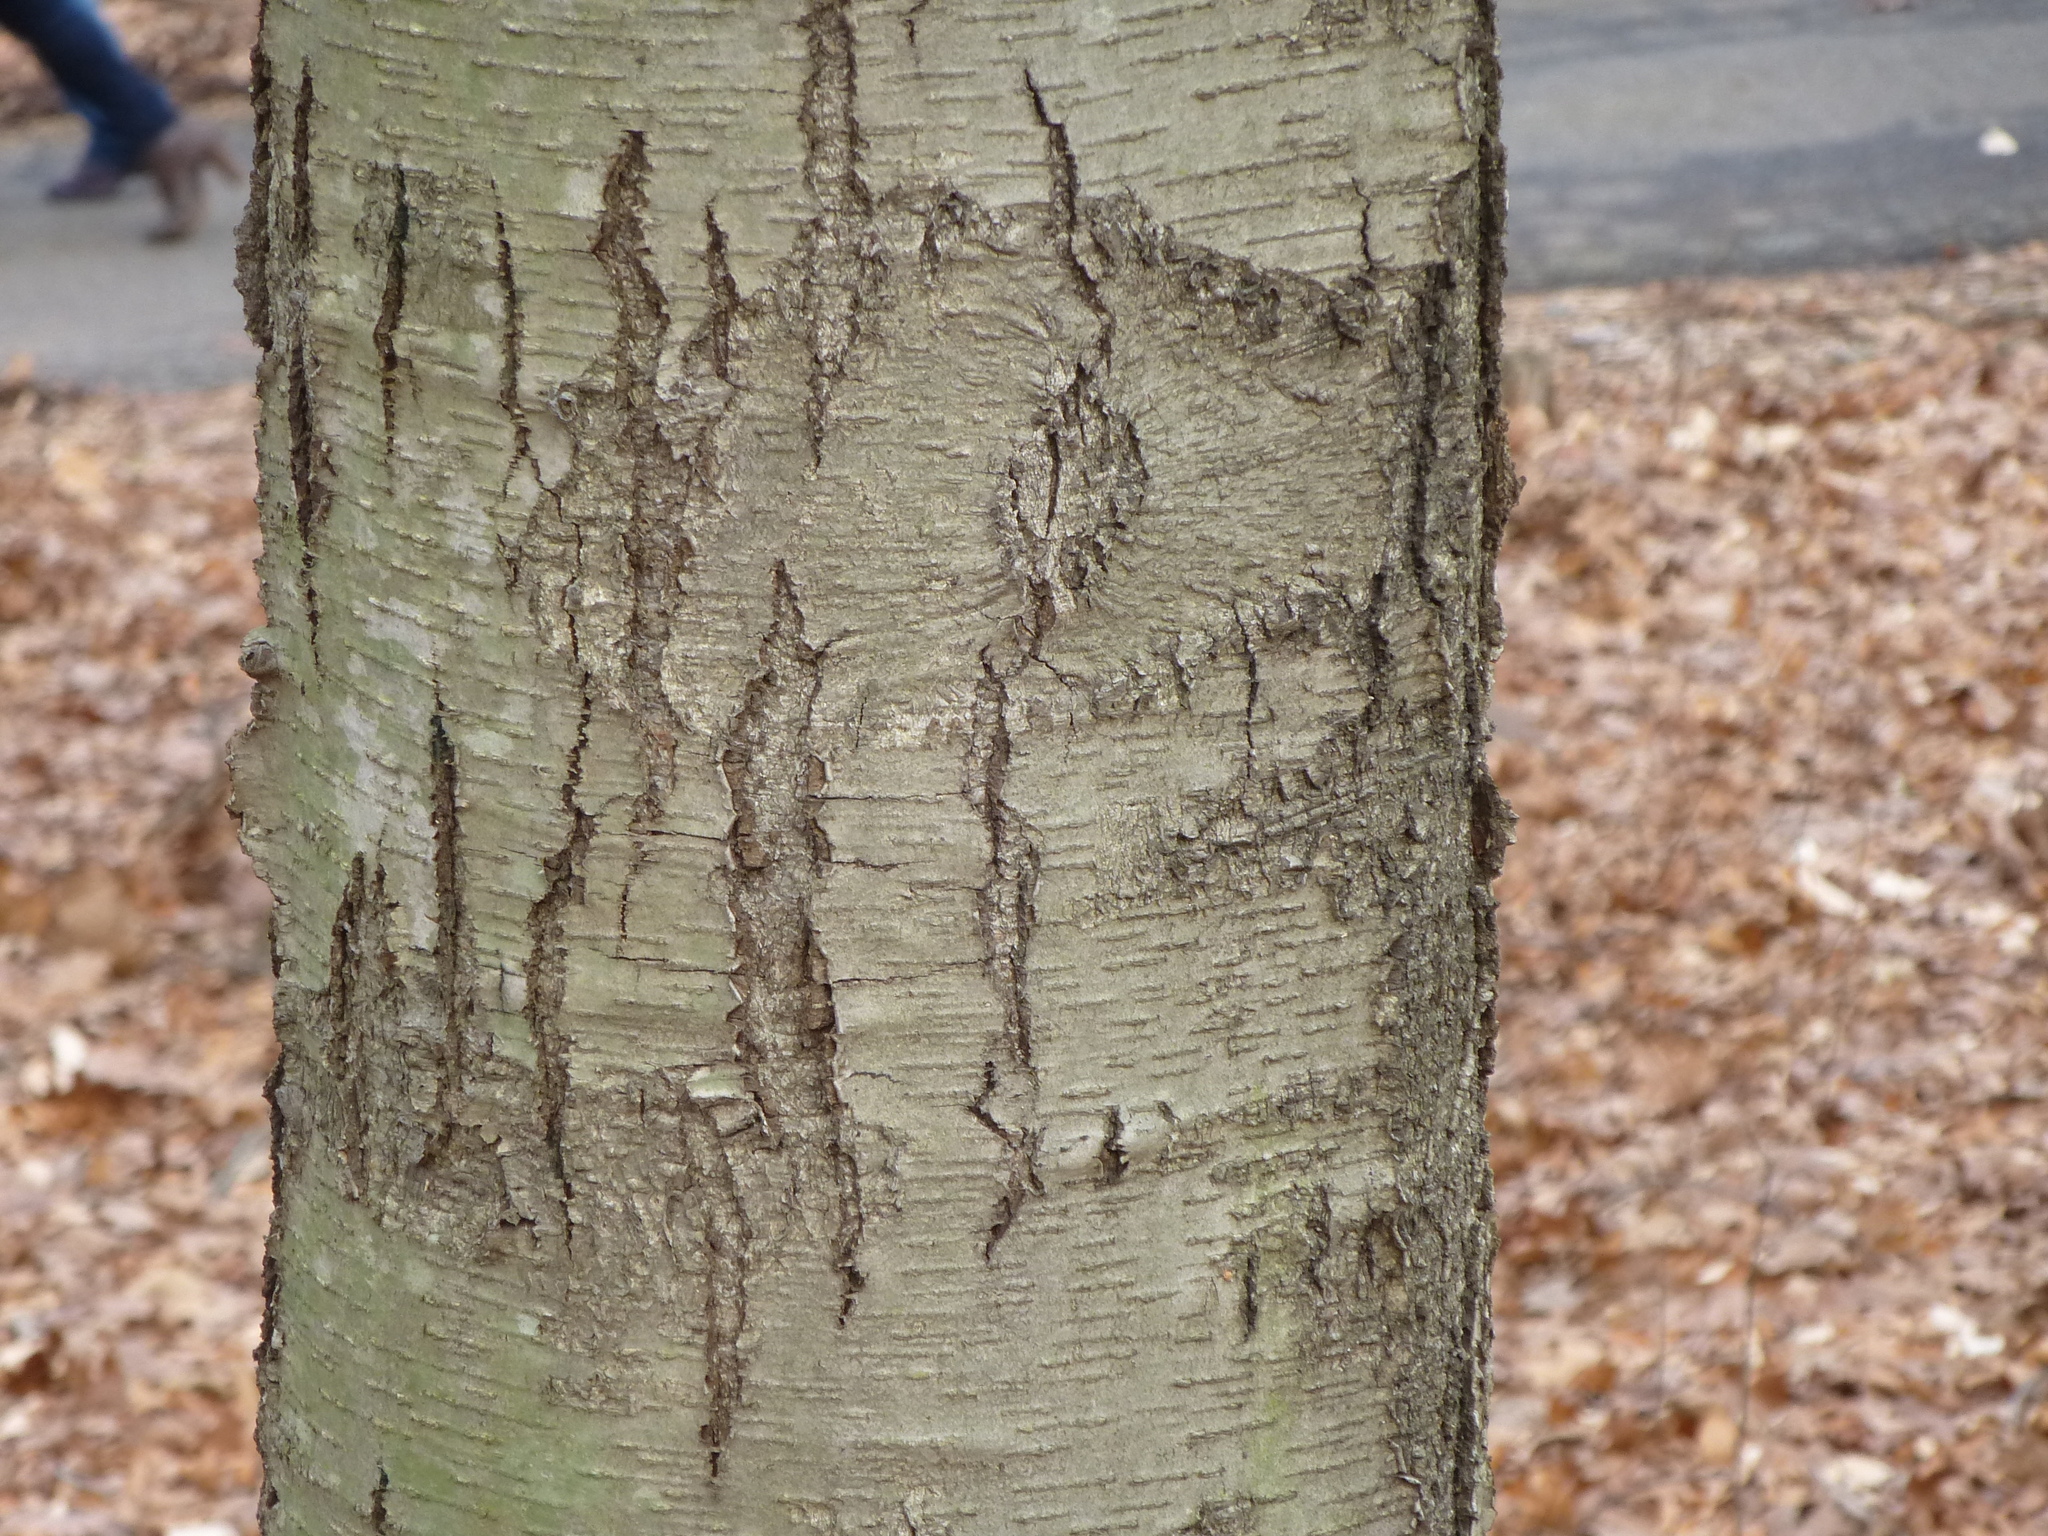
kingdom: Plantae
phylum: Tracheophyta
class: Magnoliopsida
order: Fagales
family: Betulaceae
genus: Betula
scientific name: Betula lenta
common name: Black birch
